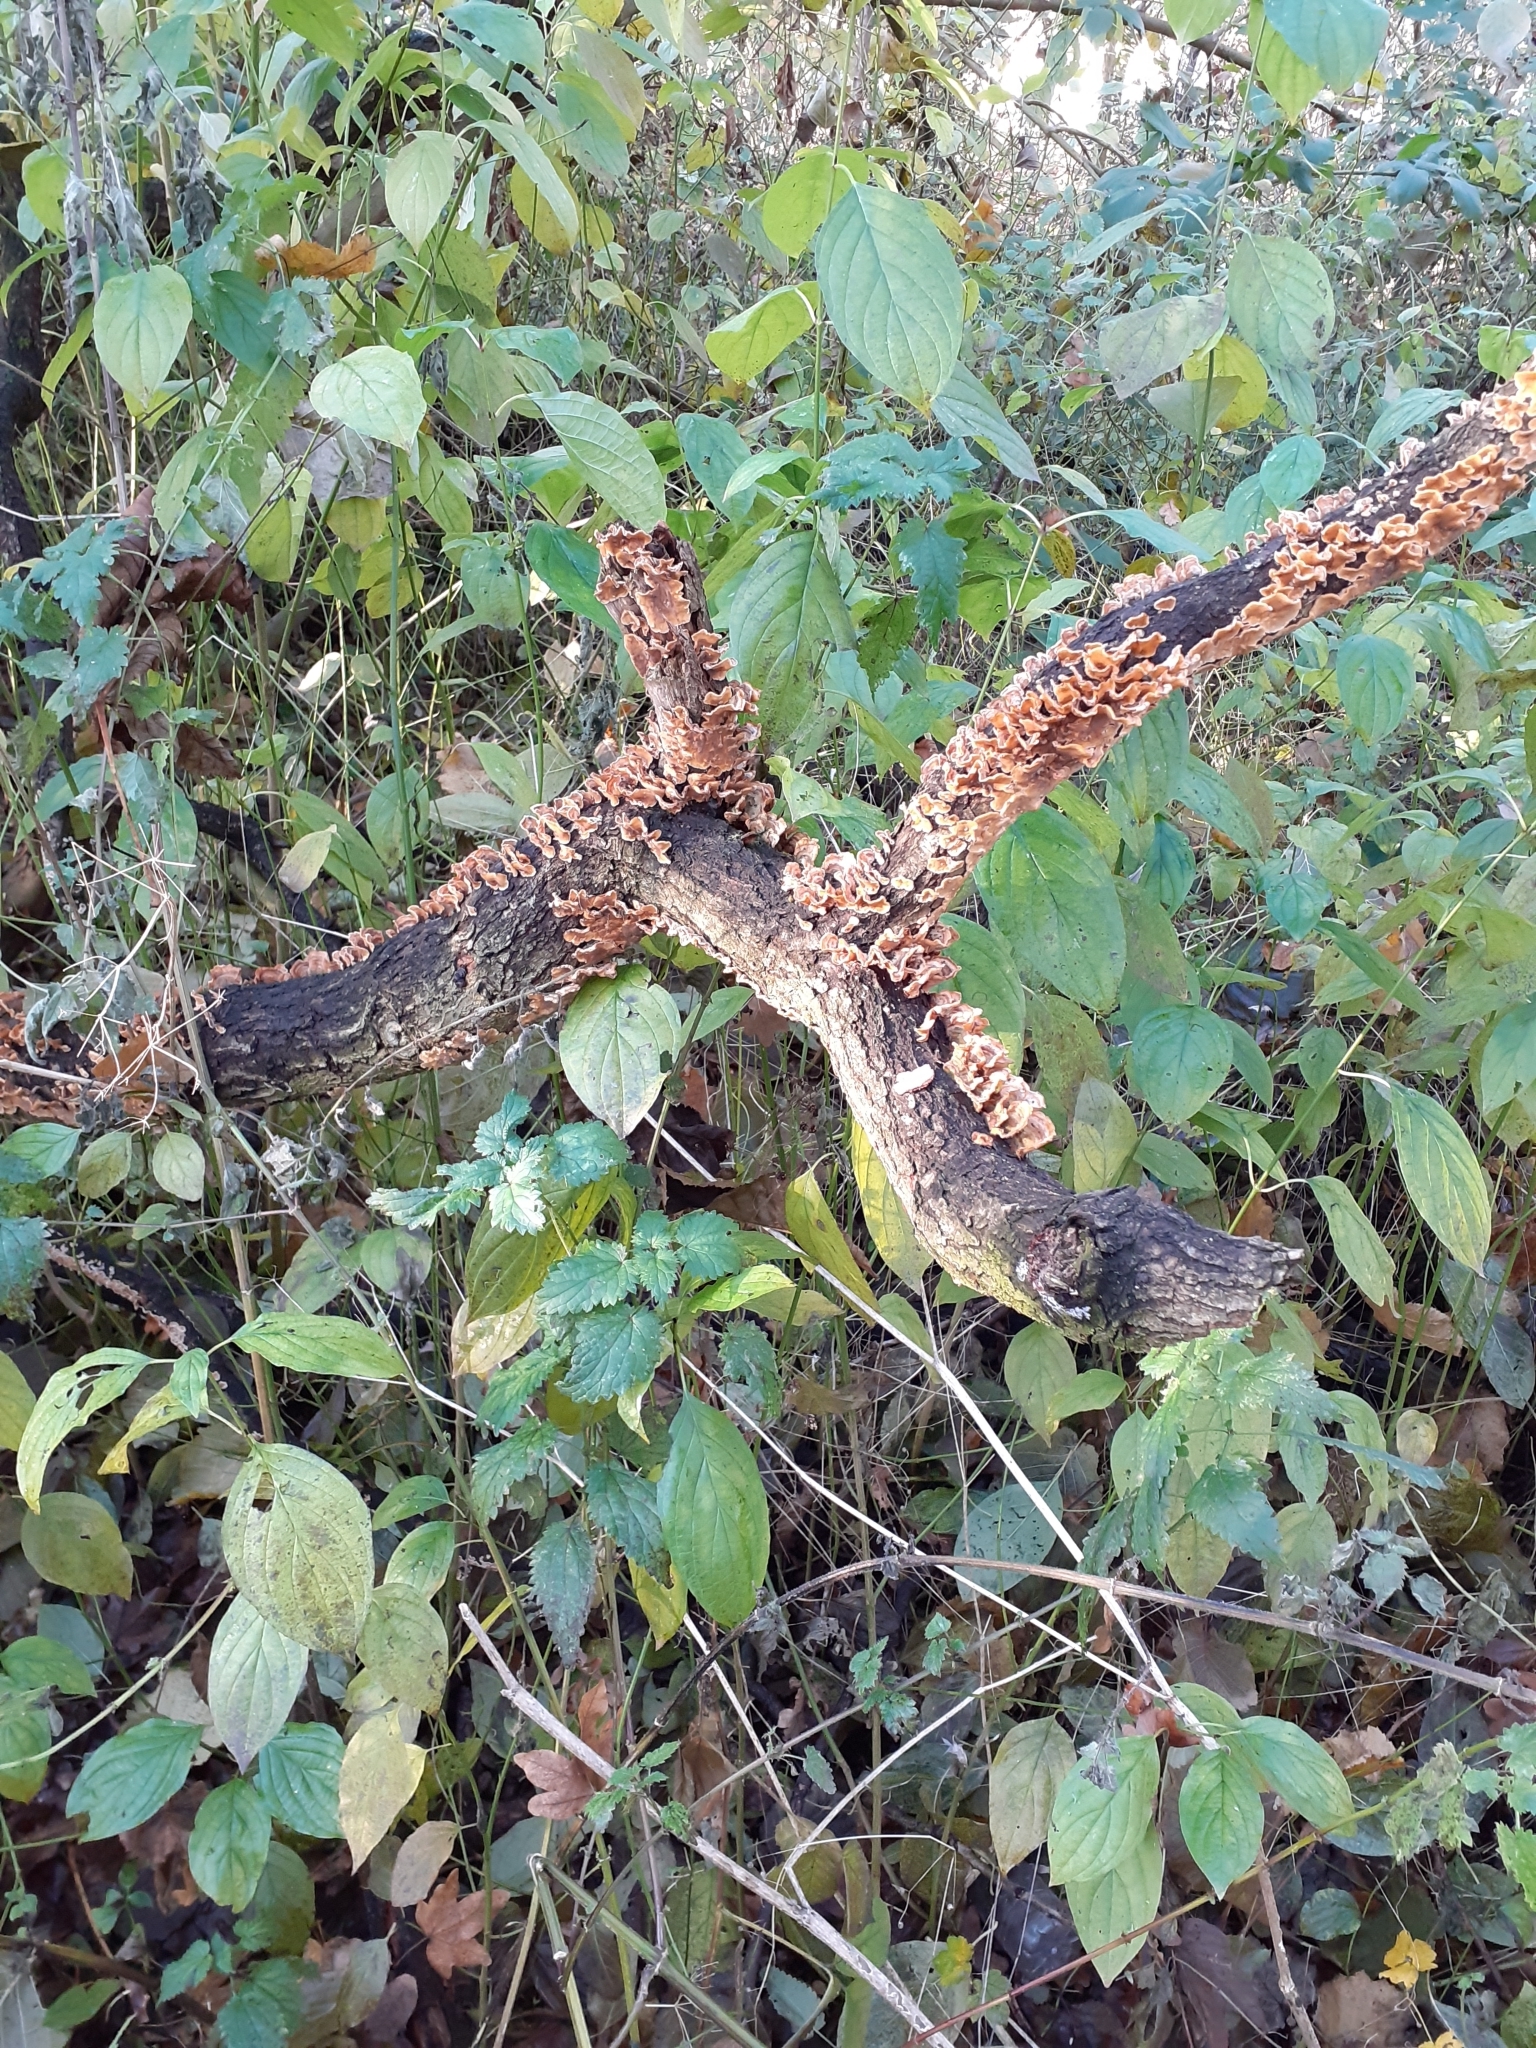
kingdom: Fungi
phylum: Basidiomycota
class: Agaricomycetes
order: Russulales
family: Stereaceae
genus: Stereum
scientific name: Stereum hirsutum
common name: Hairy curtain crust
